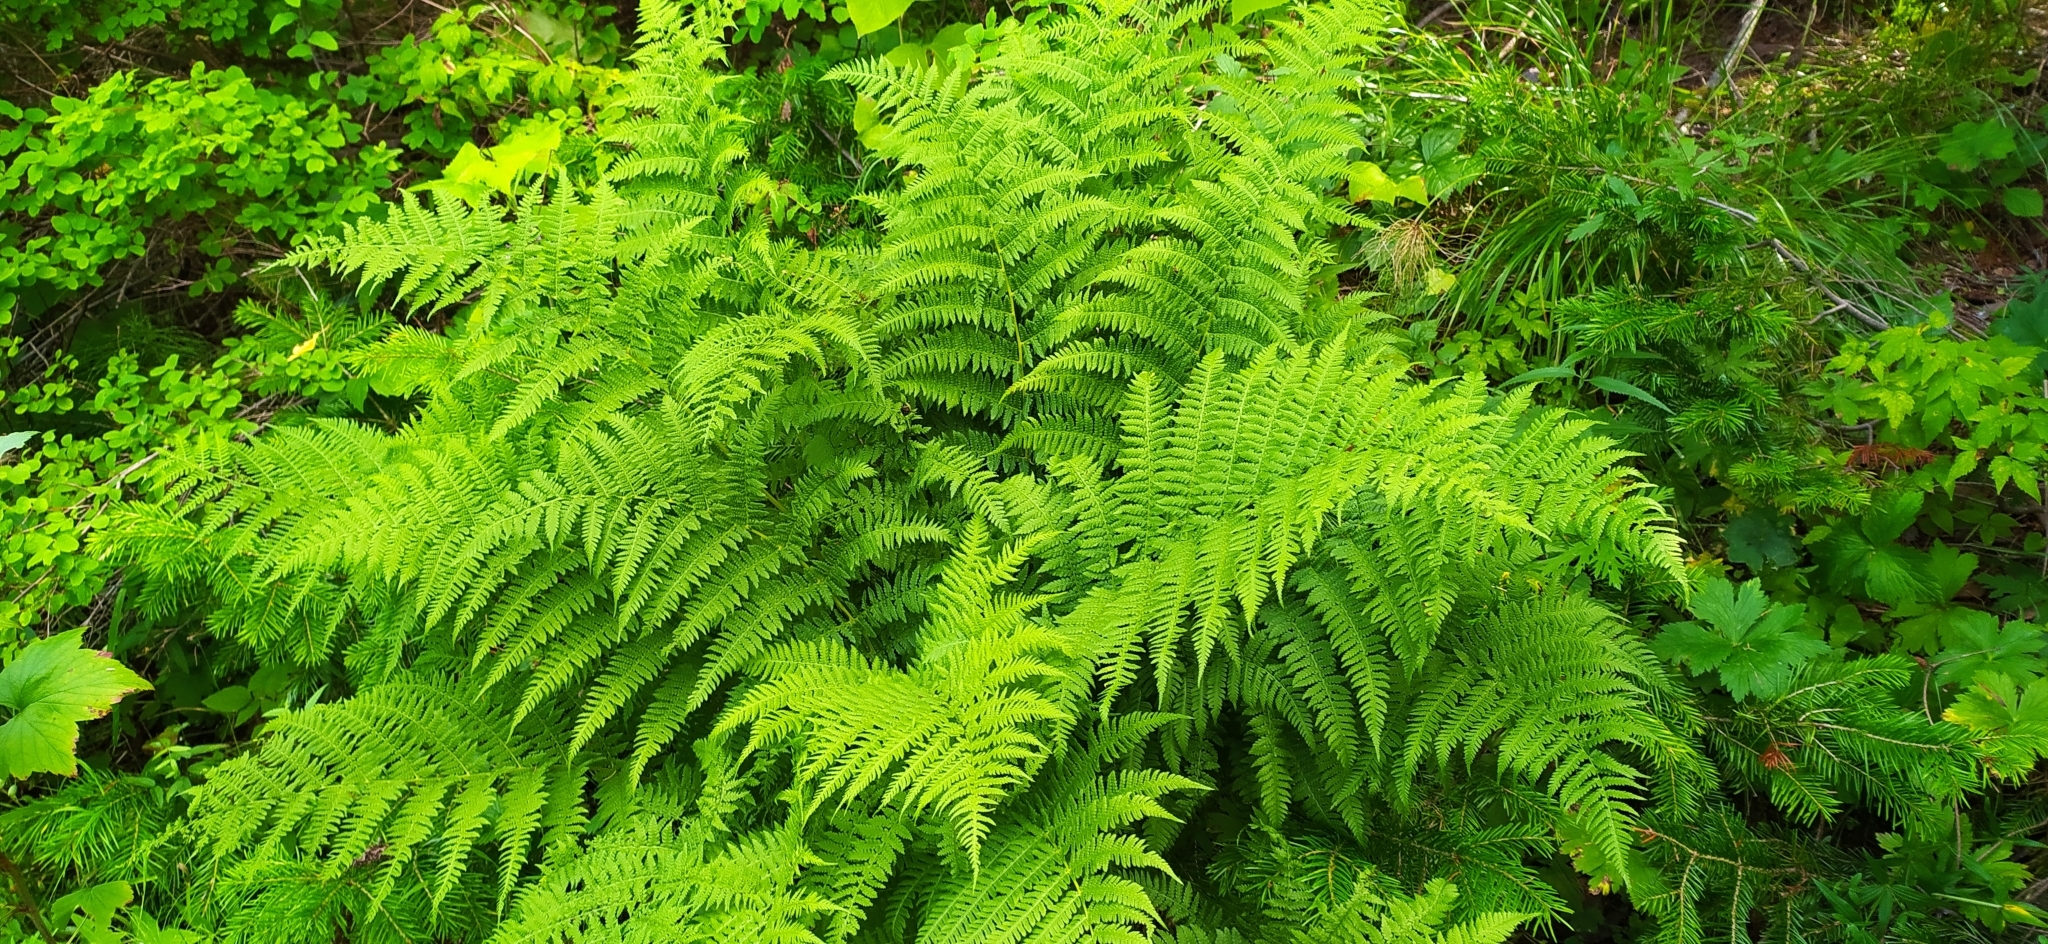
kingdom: Plantae
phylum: Tracheophyta
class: Polypodiopsida
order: Polypodiales
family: Athyriaceae
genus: Athyrium
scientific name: Athyrium filix-femina
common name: Lady fern
